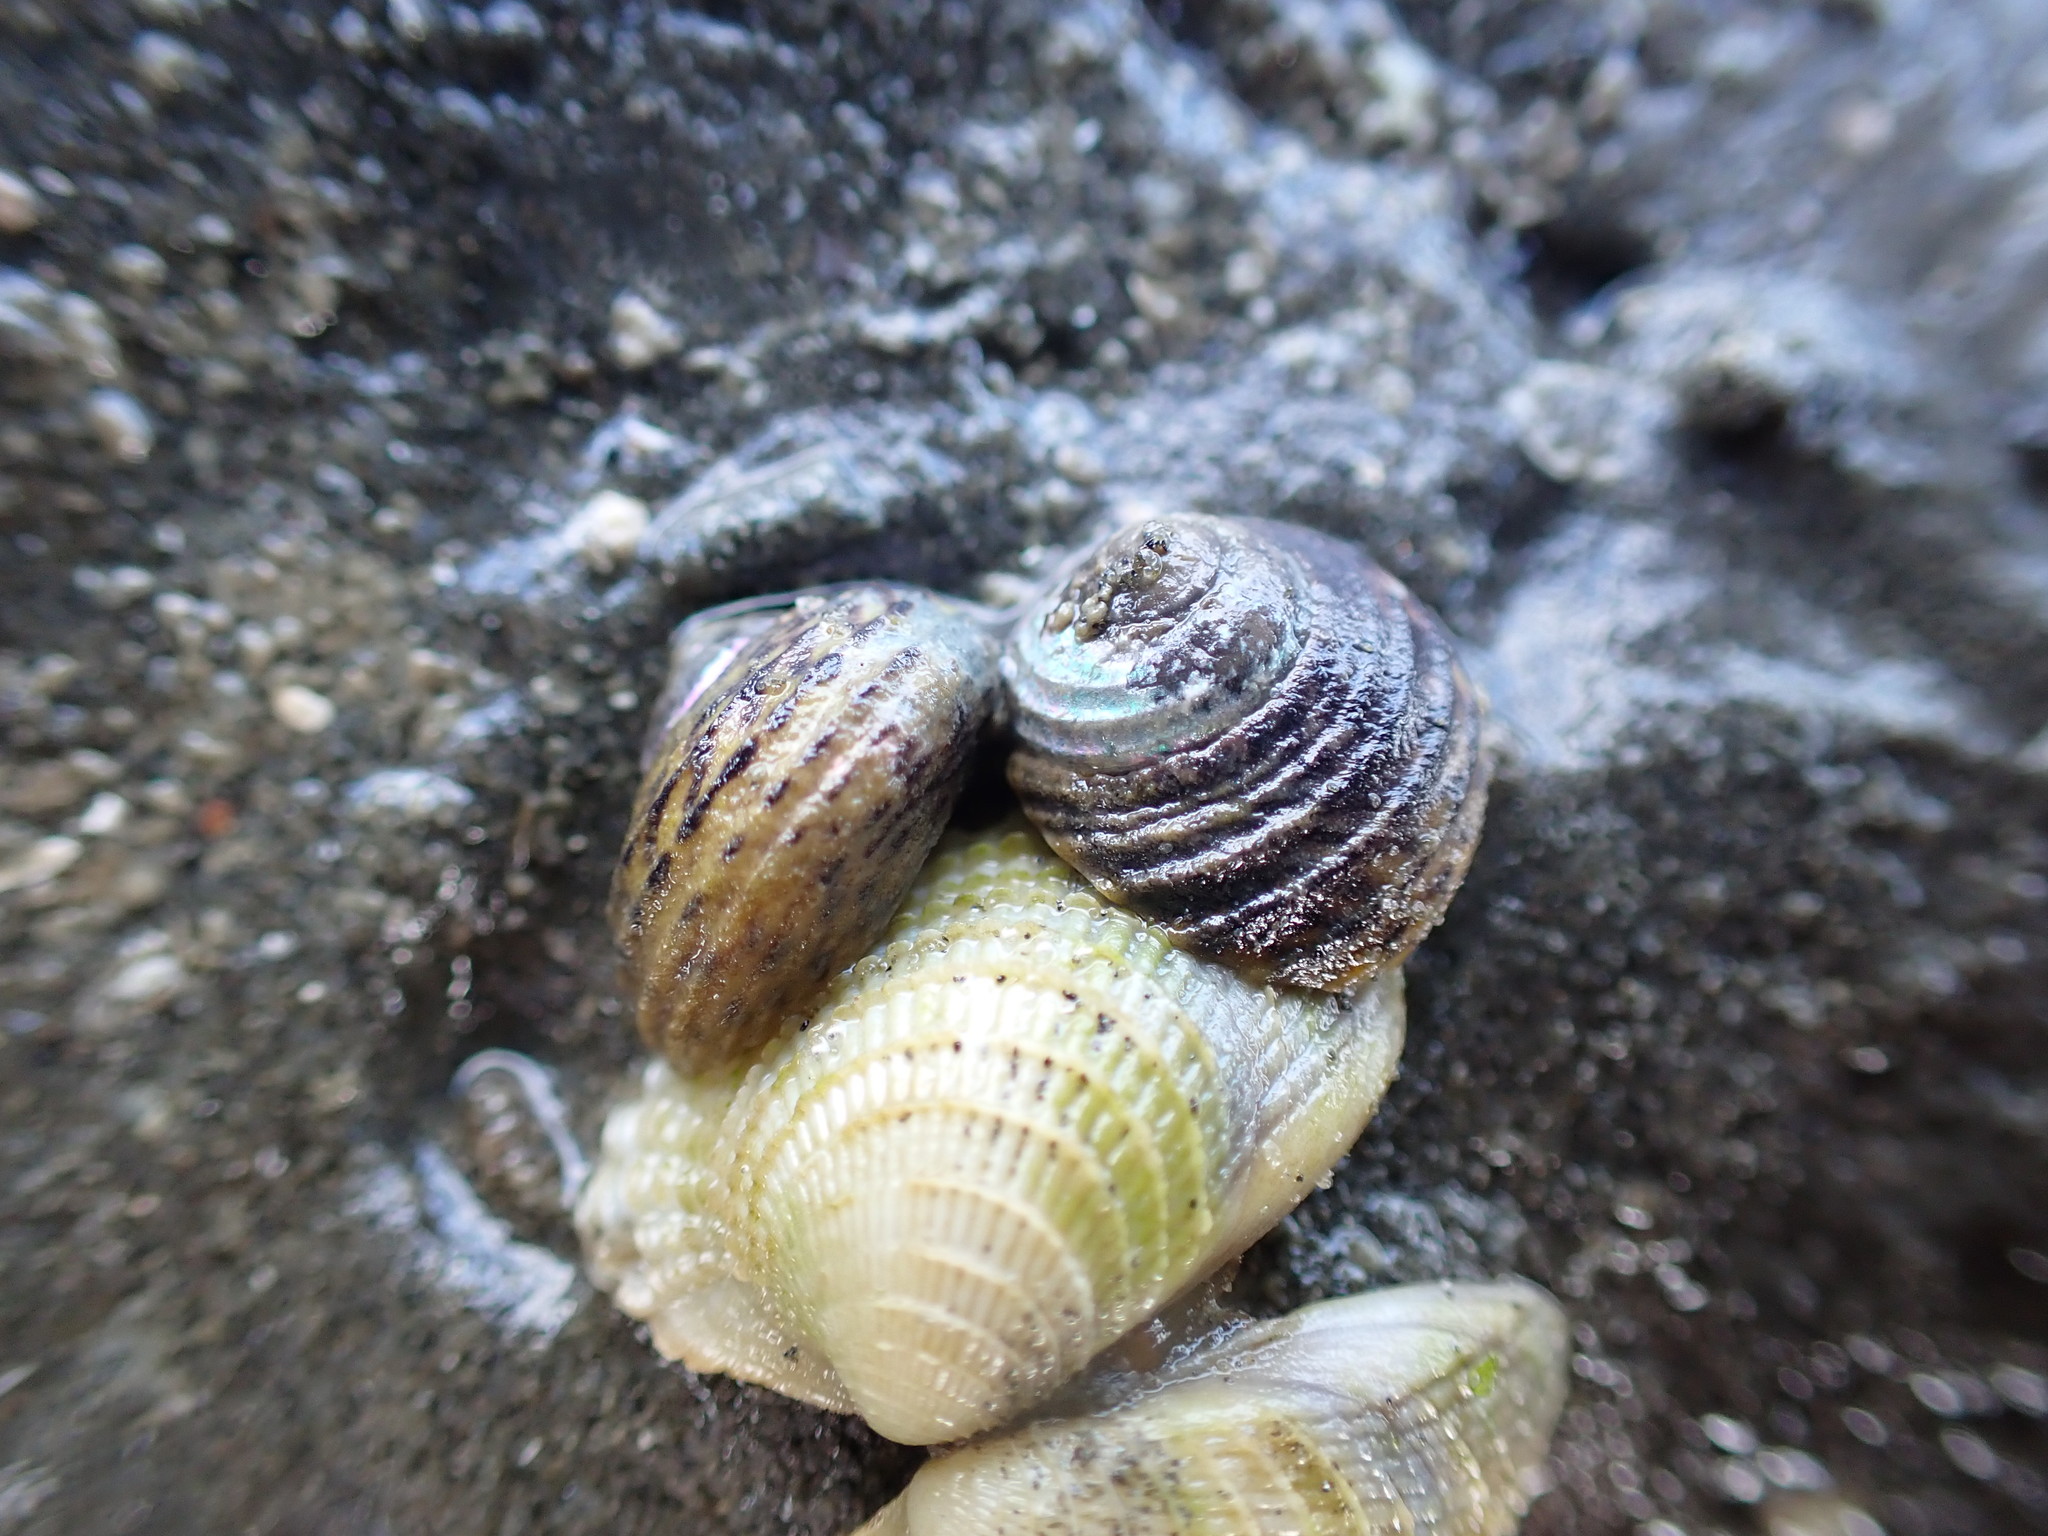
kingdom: Animalia
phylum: Mollusca
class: Gastropoda
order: Trochida
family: Trochidae
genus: Diloma
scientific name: Diloma subrostratum
